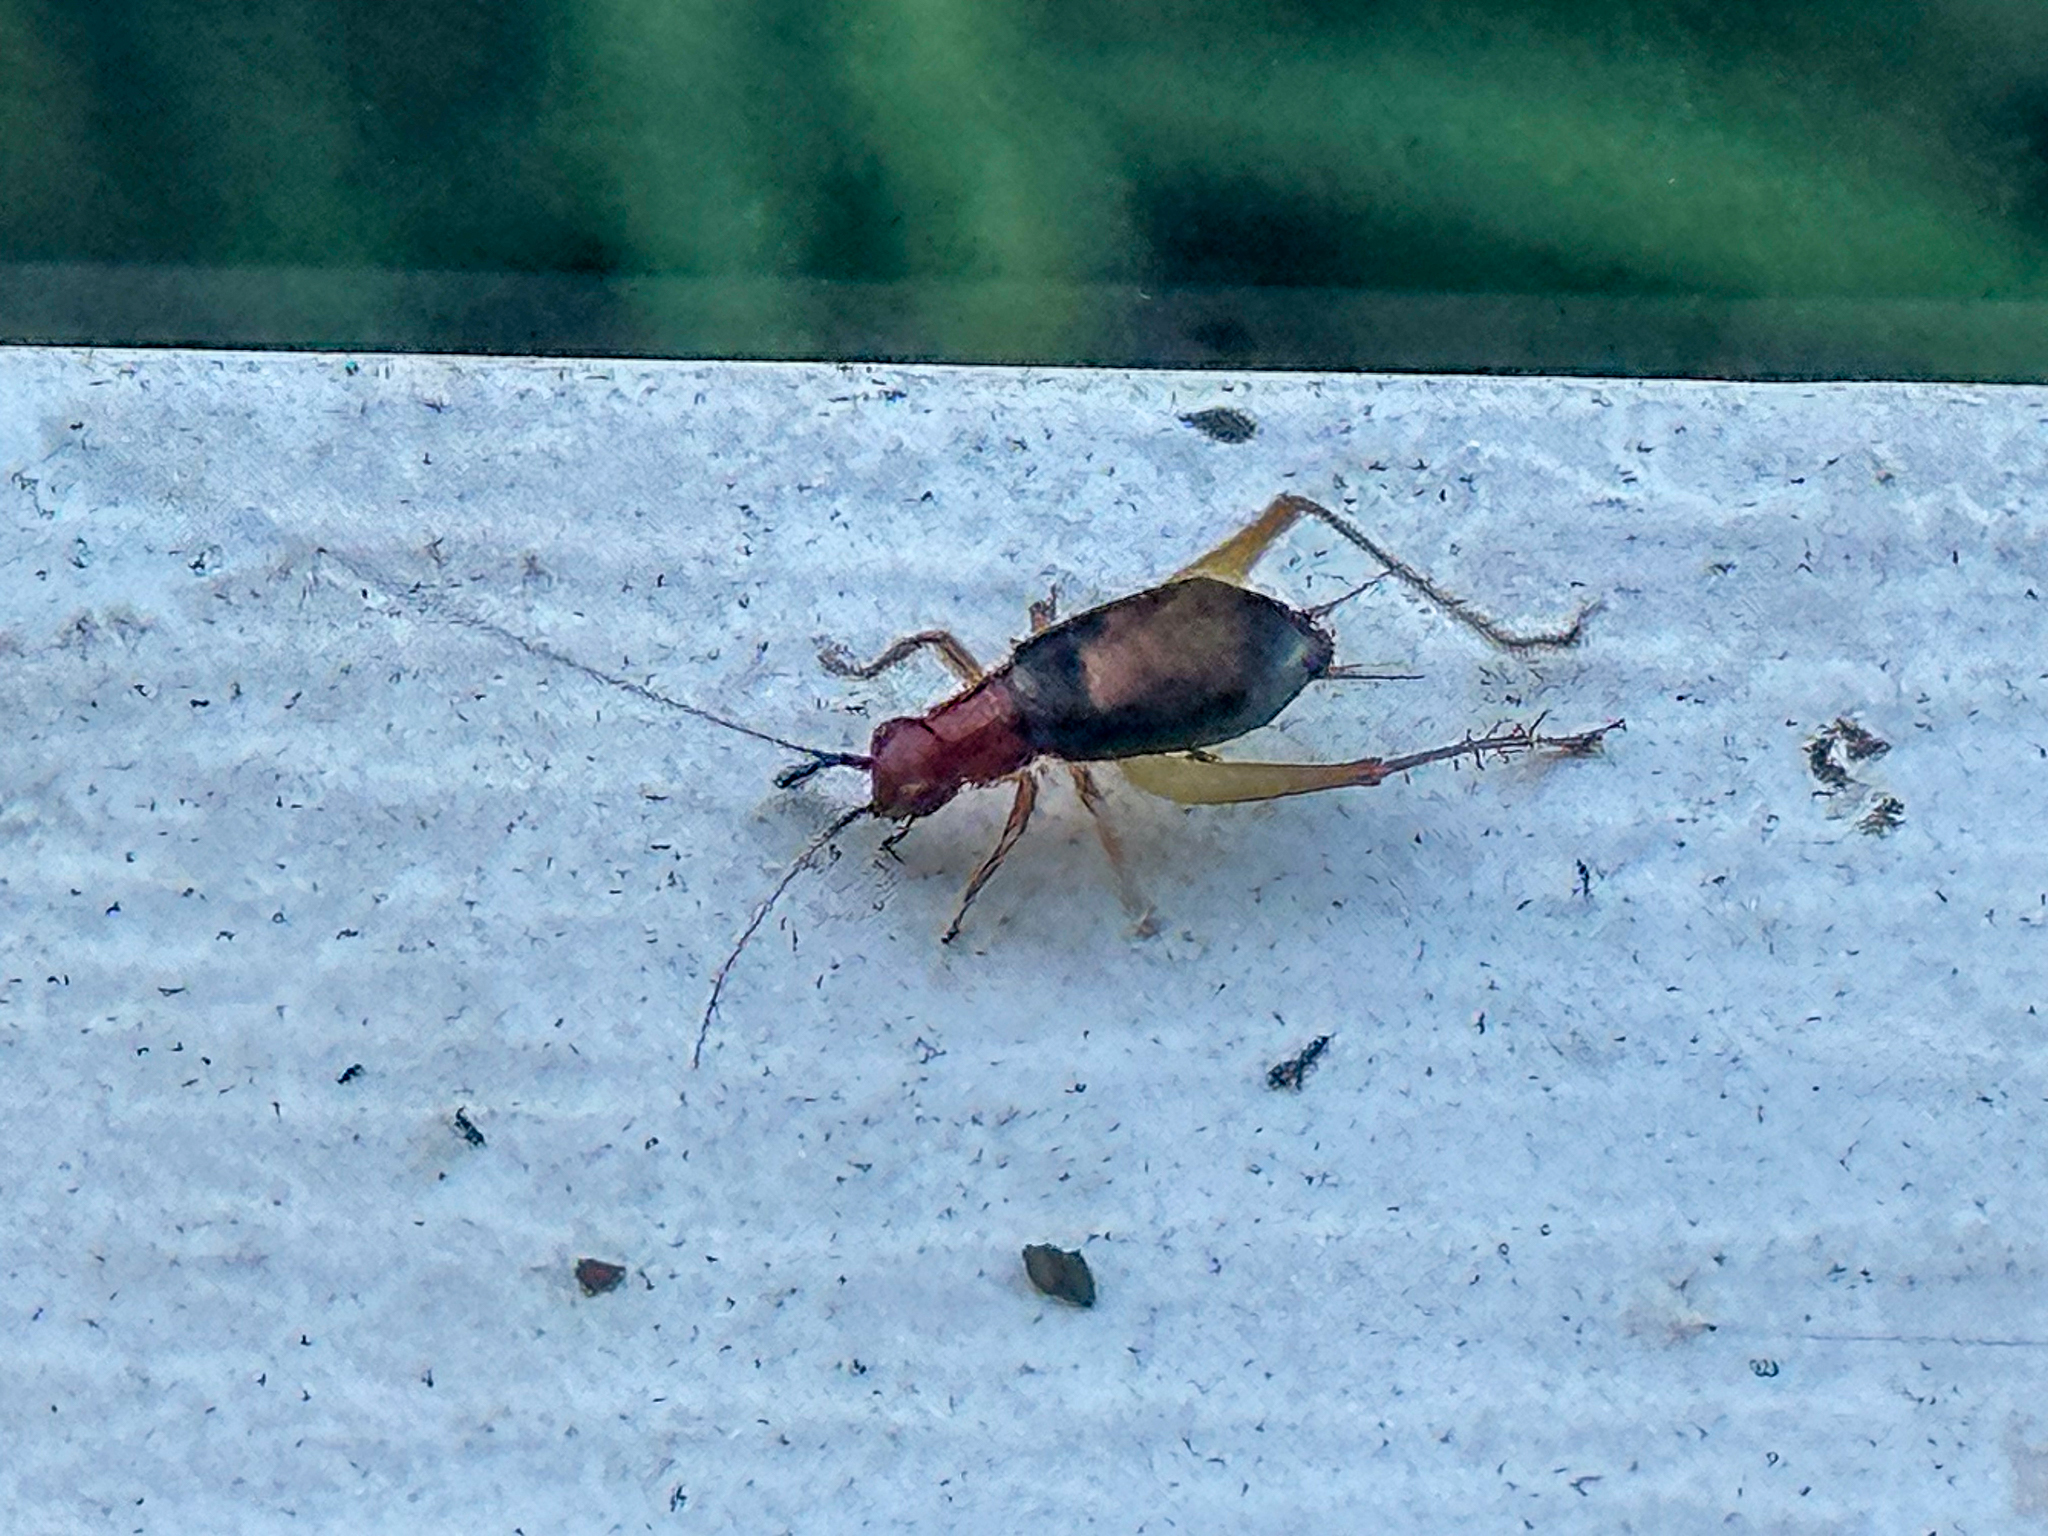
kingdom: Animalia
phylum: Arthropoda
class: Insecta
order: Orthoptera
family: Trigonidiidae
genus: Phyllopalpus
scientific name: Phyllopalpus pulchellus
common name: Handsome trig
